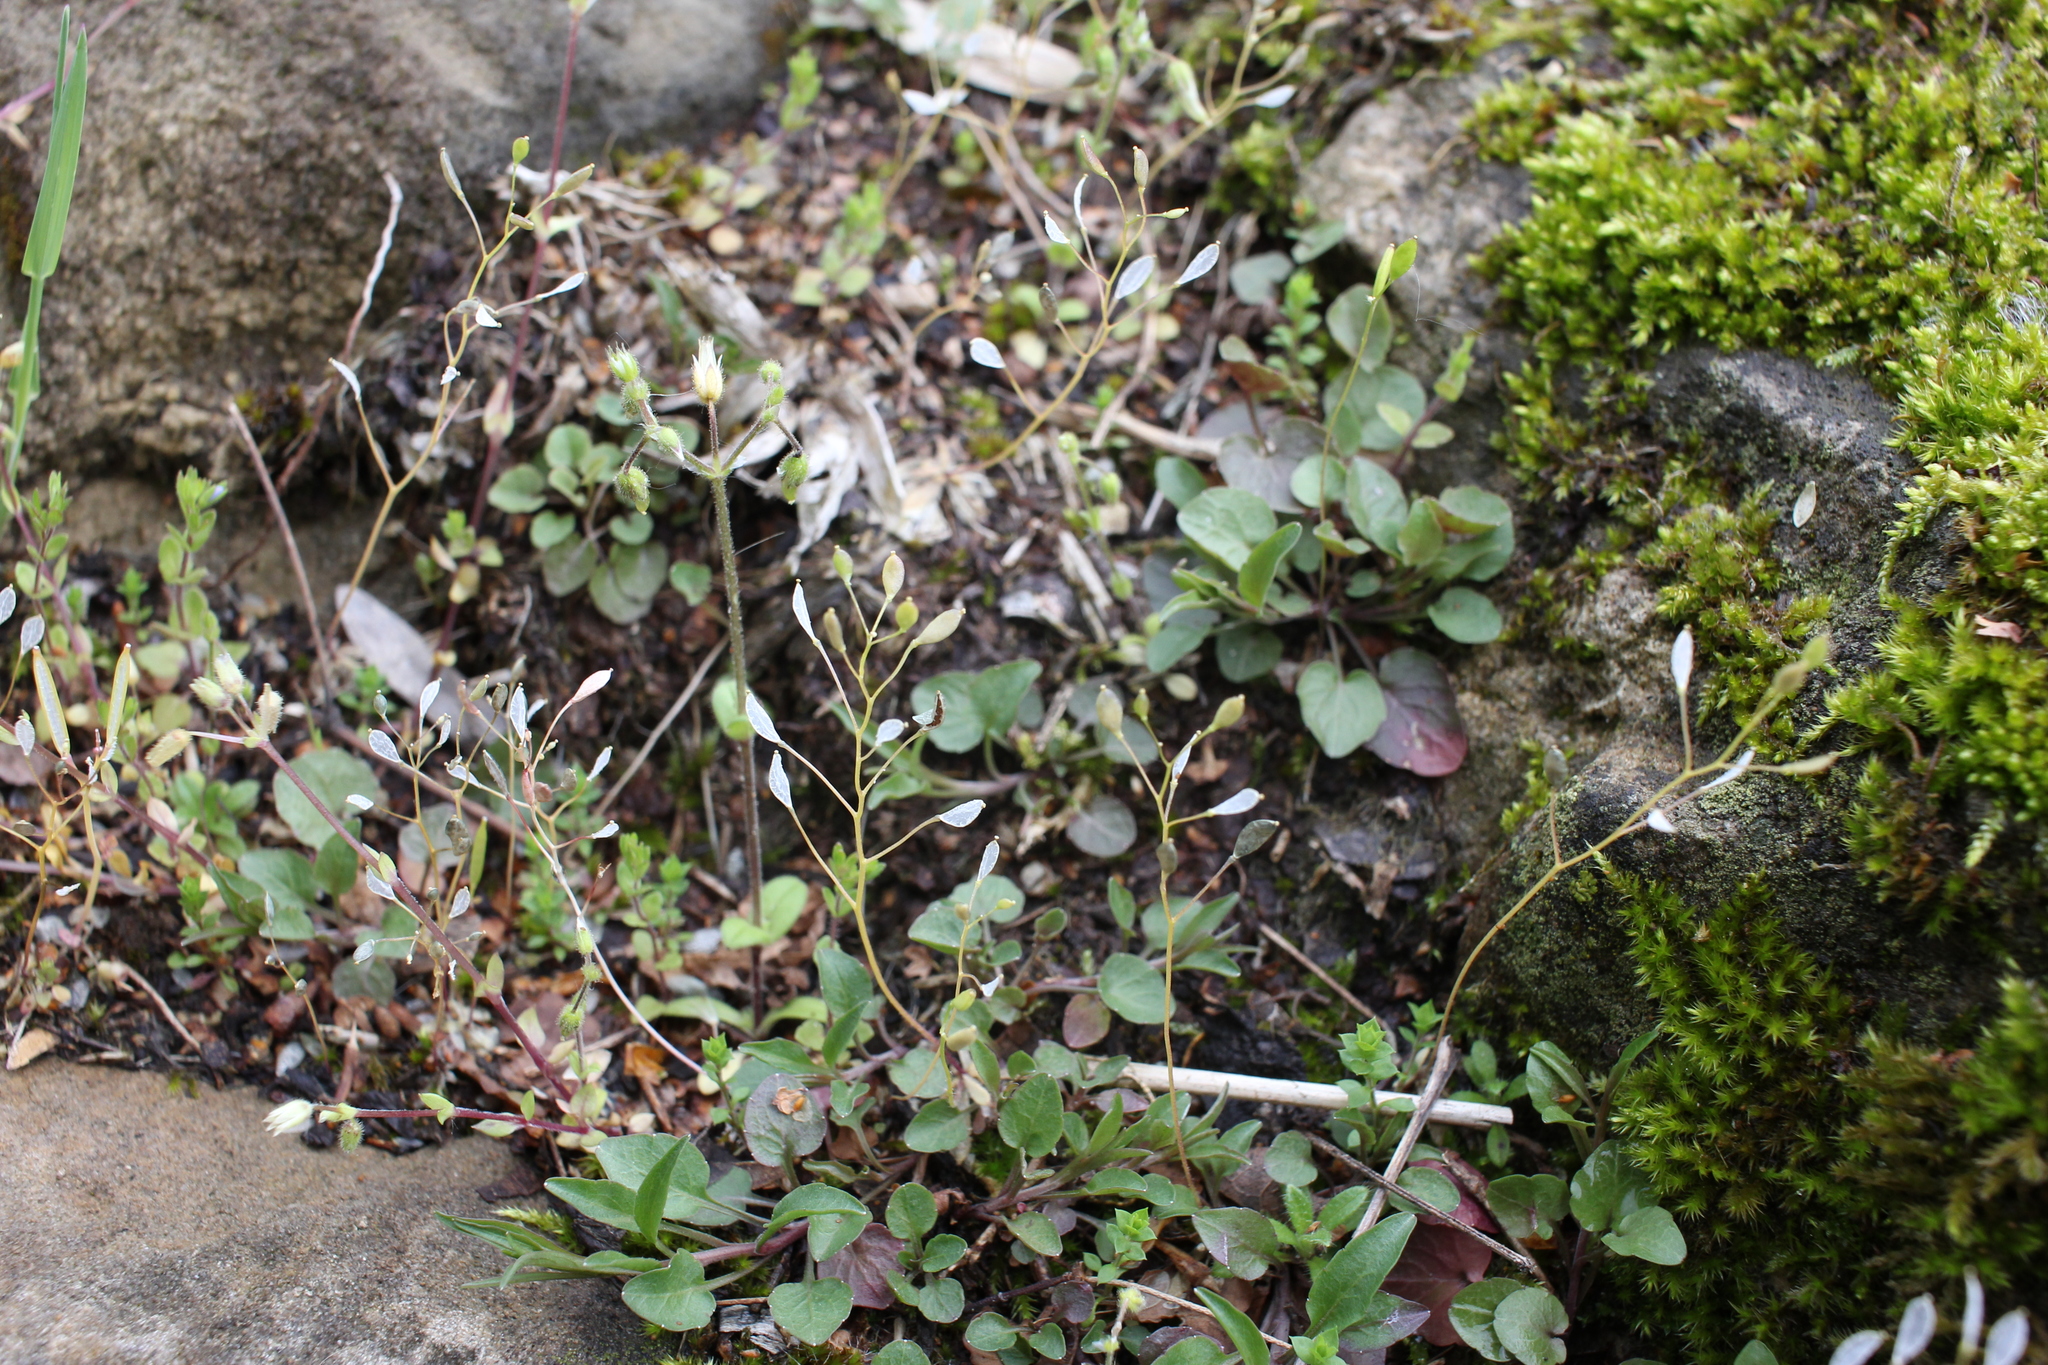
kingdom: Plantae
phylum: Tracheophyta
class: Magnoliopsida
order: Brassicales
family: Brassicaceae
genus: Draba
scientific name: Draba verna
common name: Spring draba
